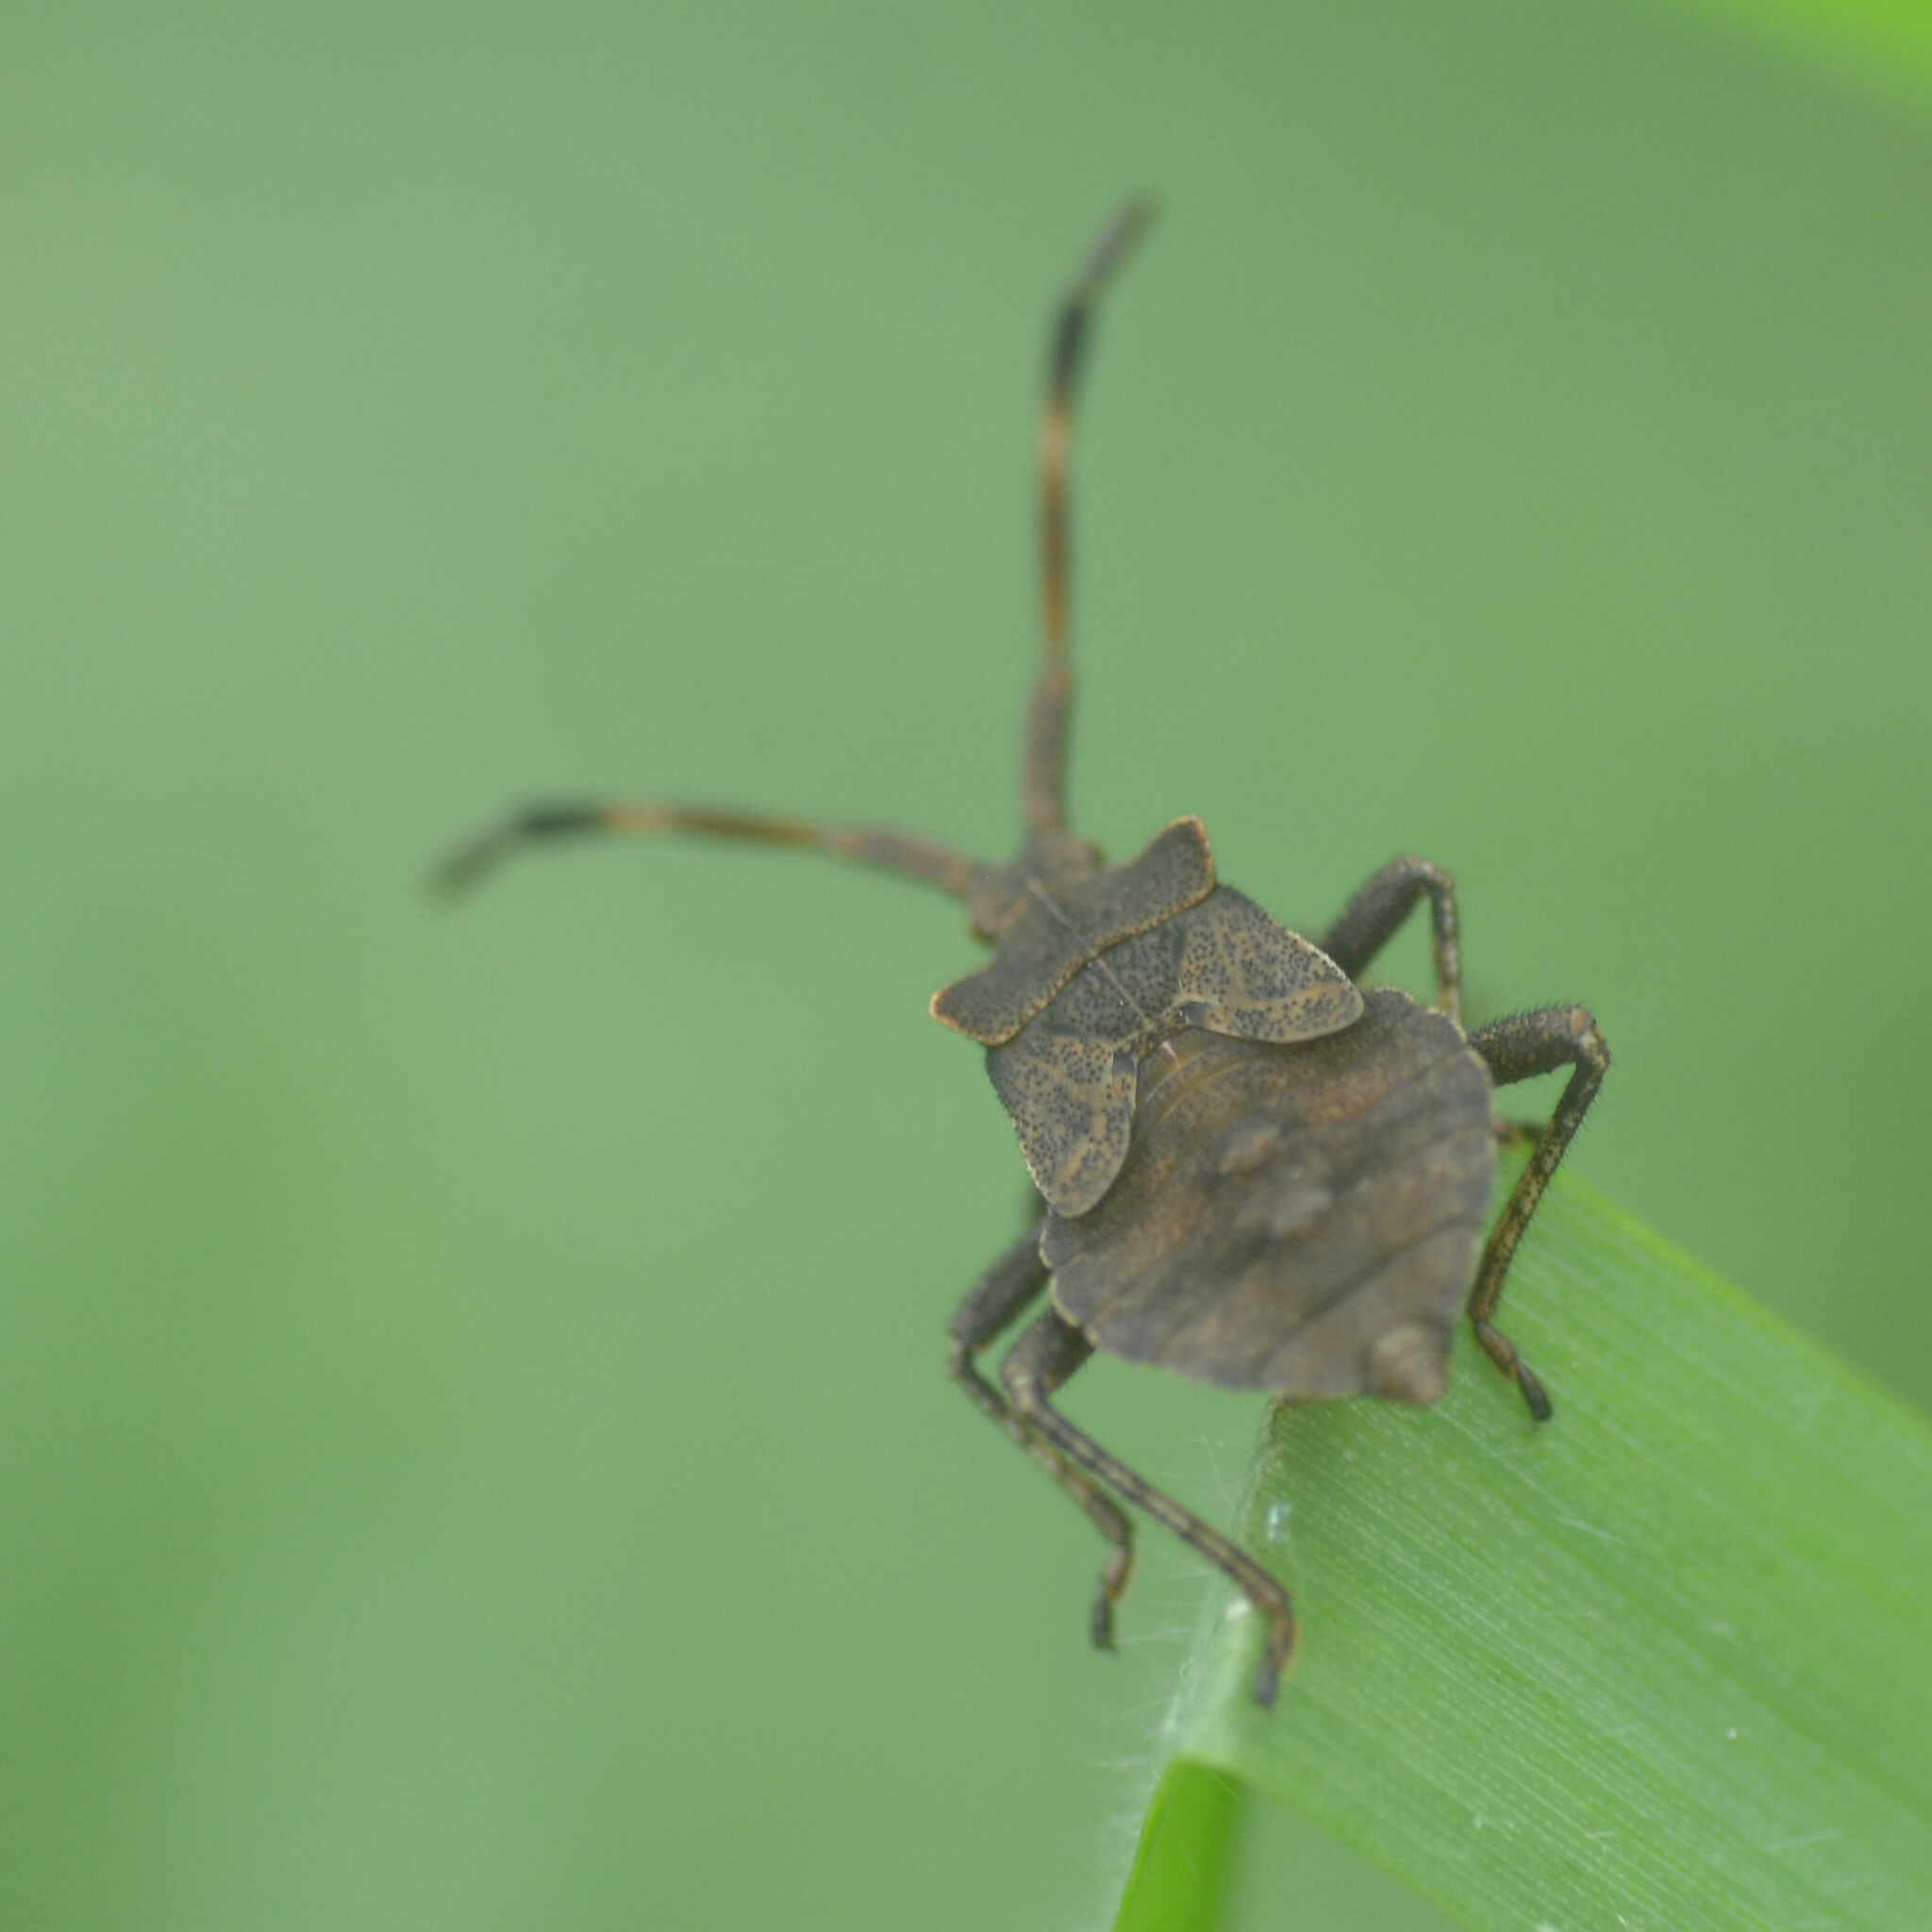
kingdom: Animalia
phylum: Arthropoda
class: Insecta
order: Hemiptera
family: Coreidae
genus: Coreus
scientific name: Coreus marginatus
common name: Dock bug
